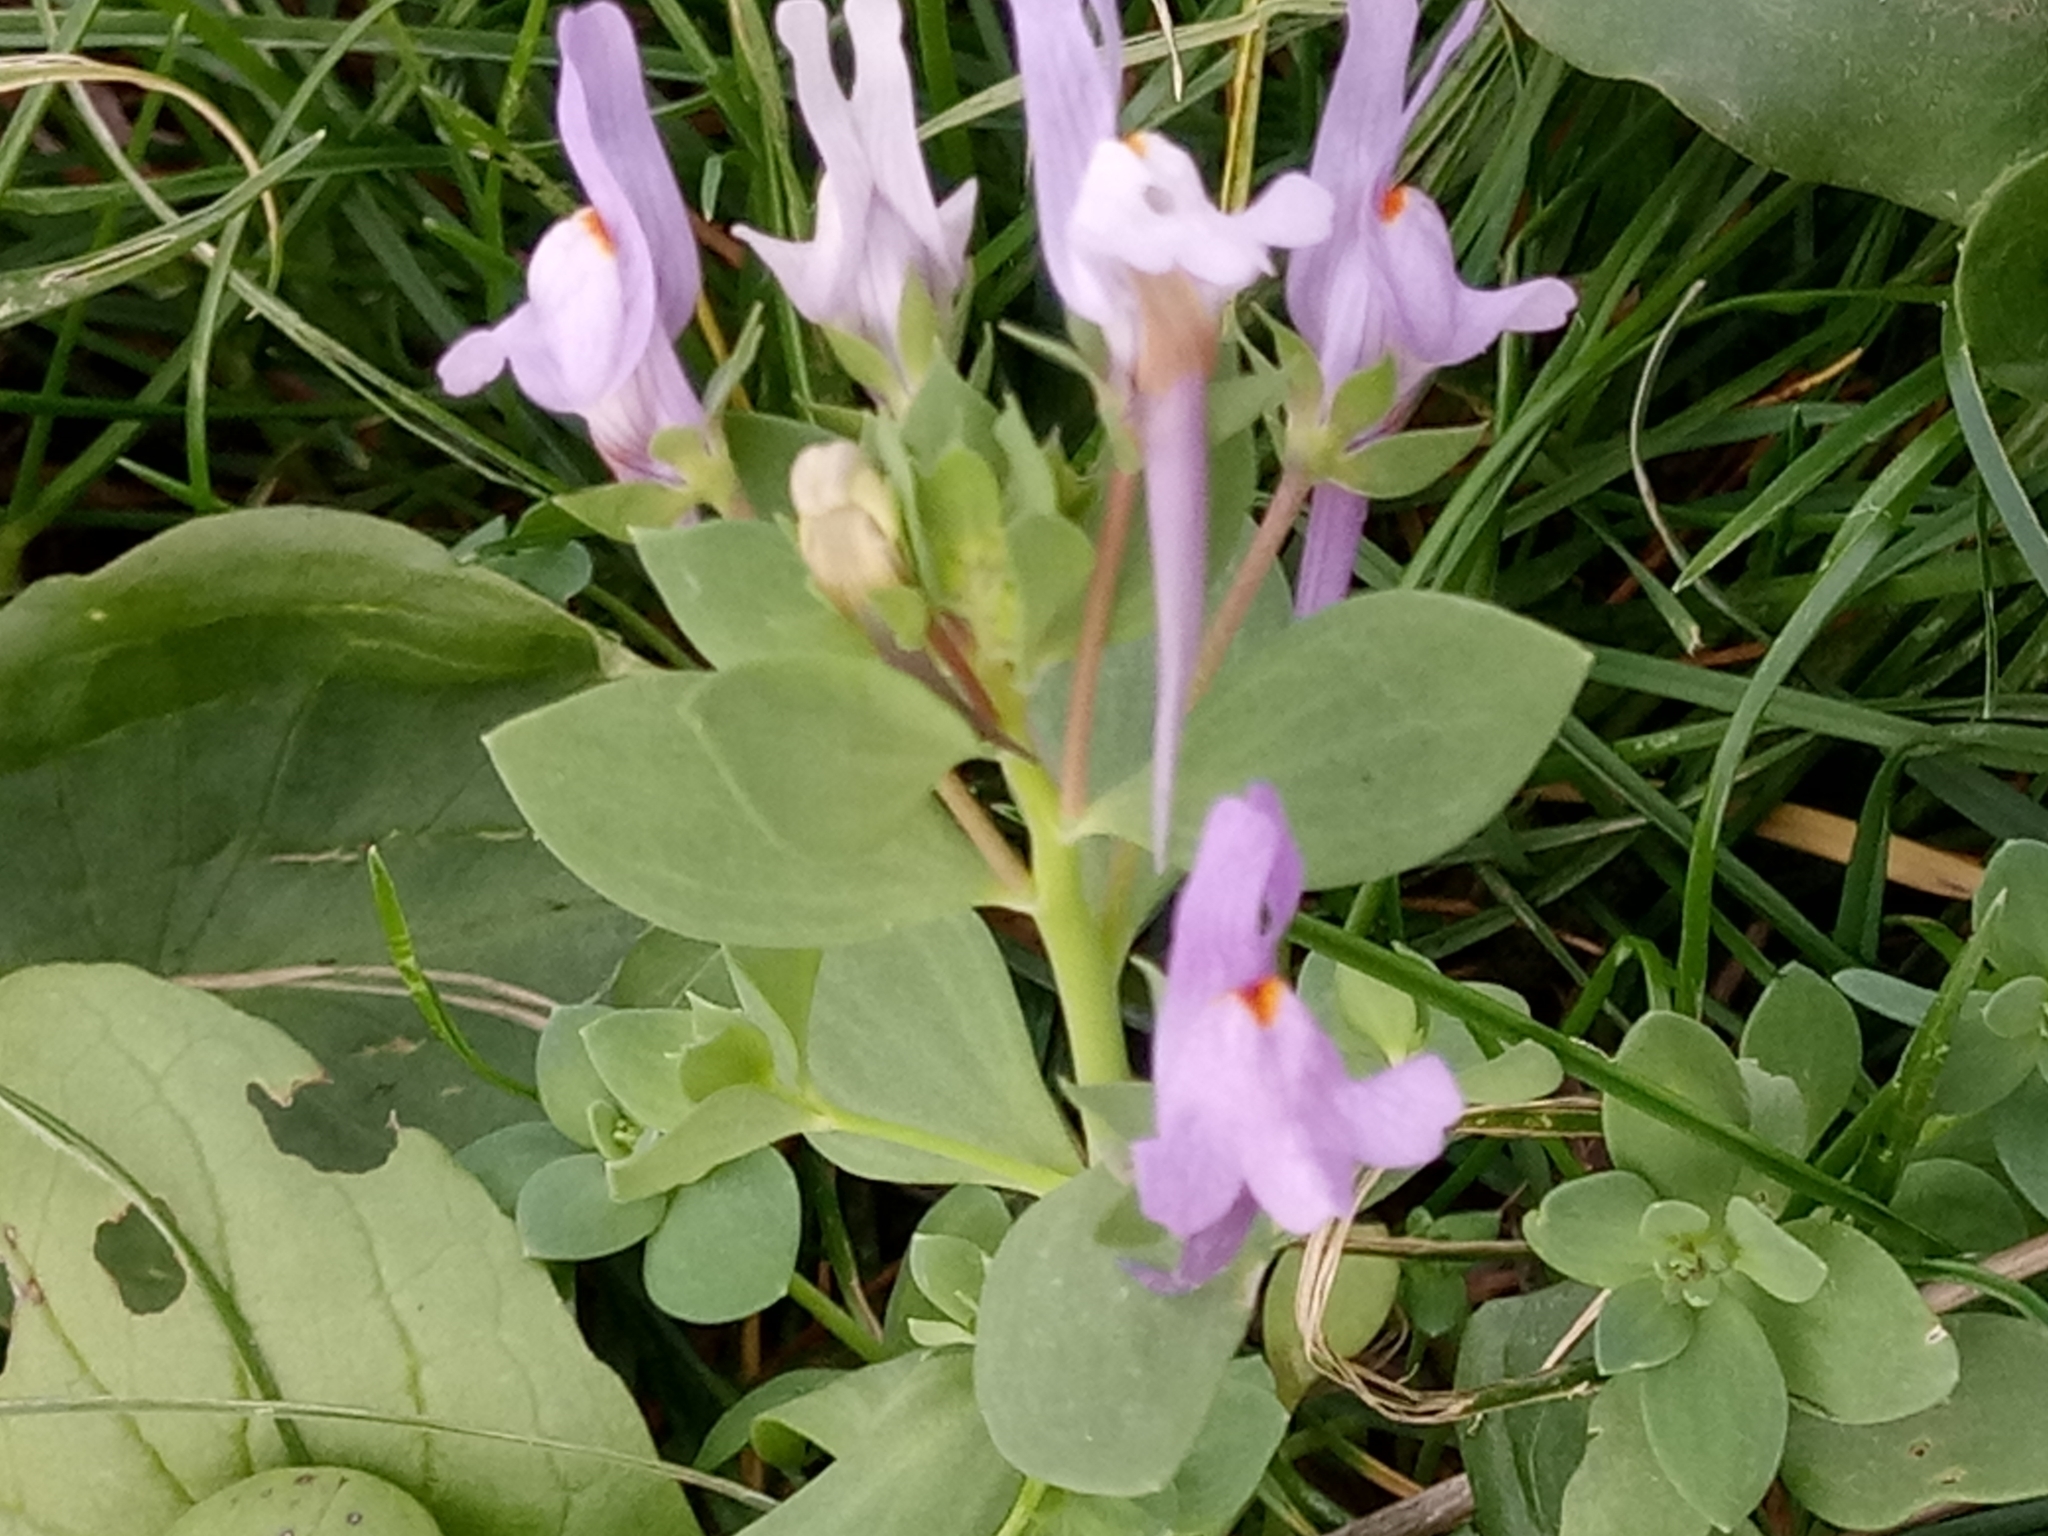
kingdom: Plantae
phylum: Tracheophyta
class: Magnoliopsida
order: Lamiales
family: Plantaginaceae
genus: Linaria
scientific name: Linaria reflexa
